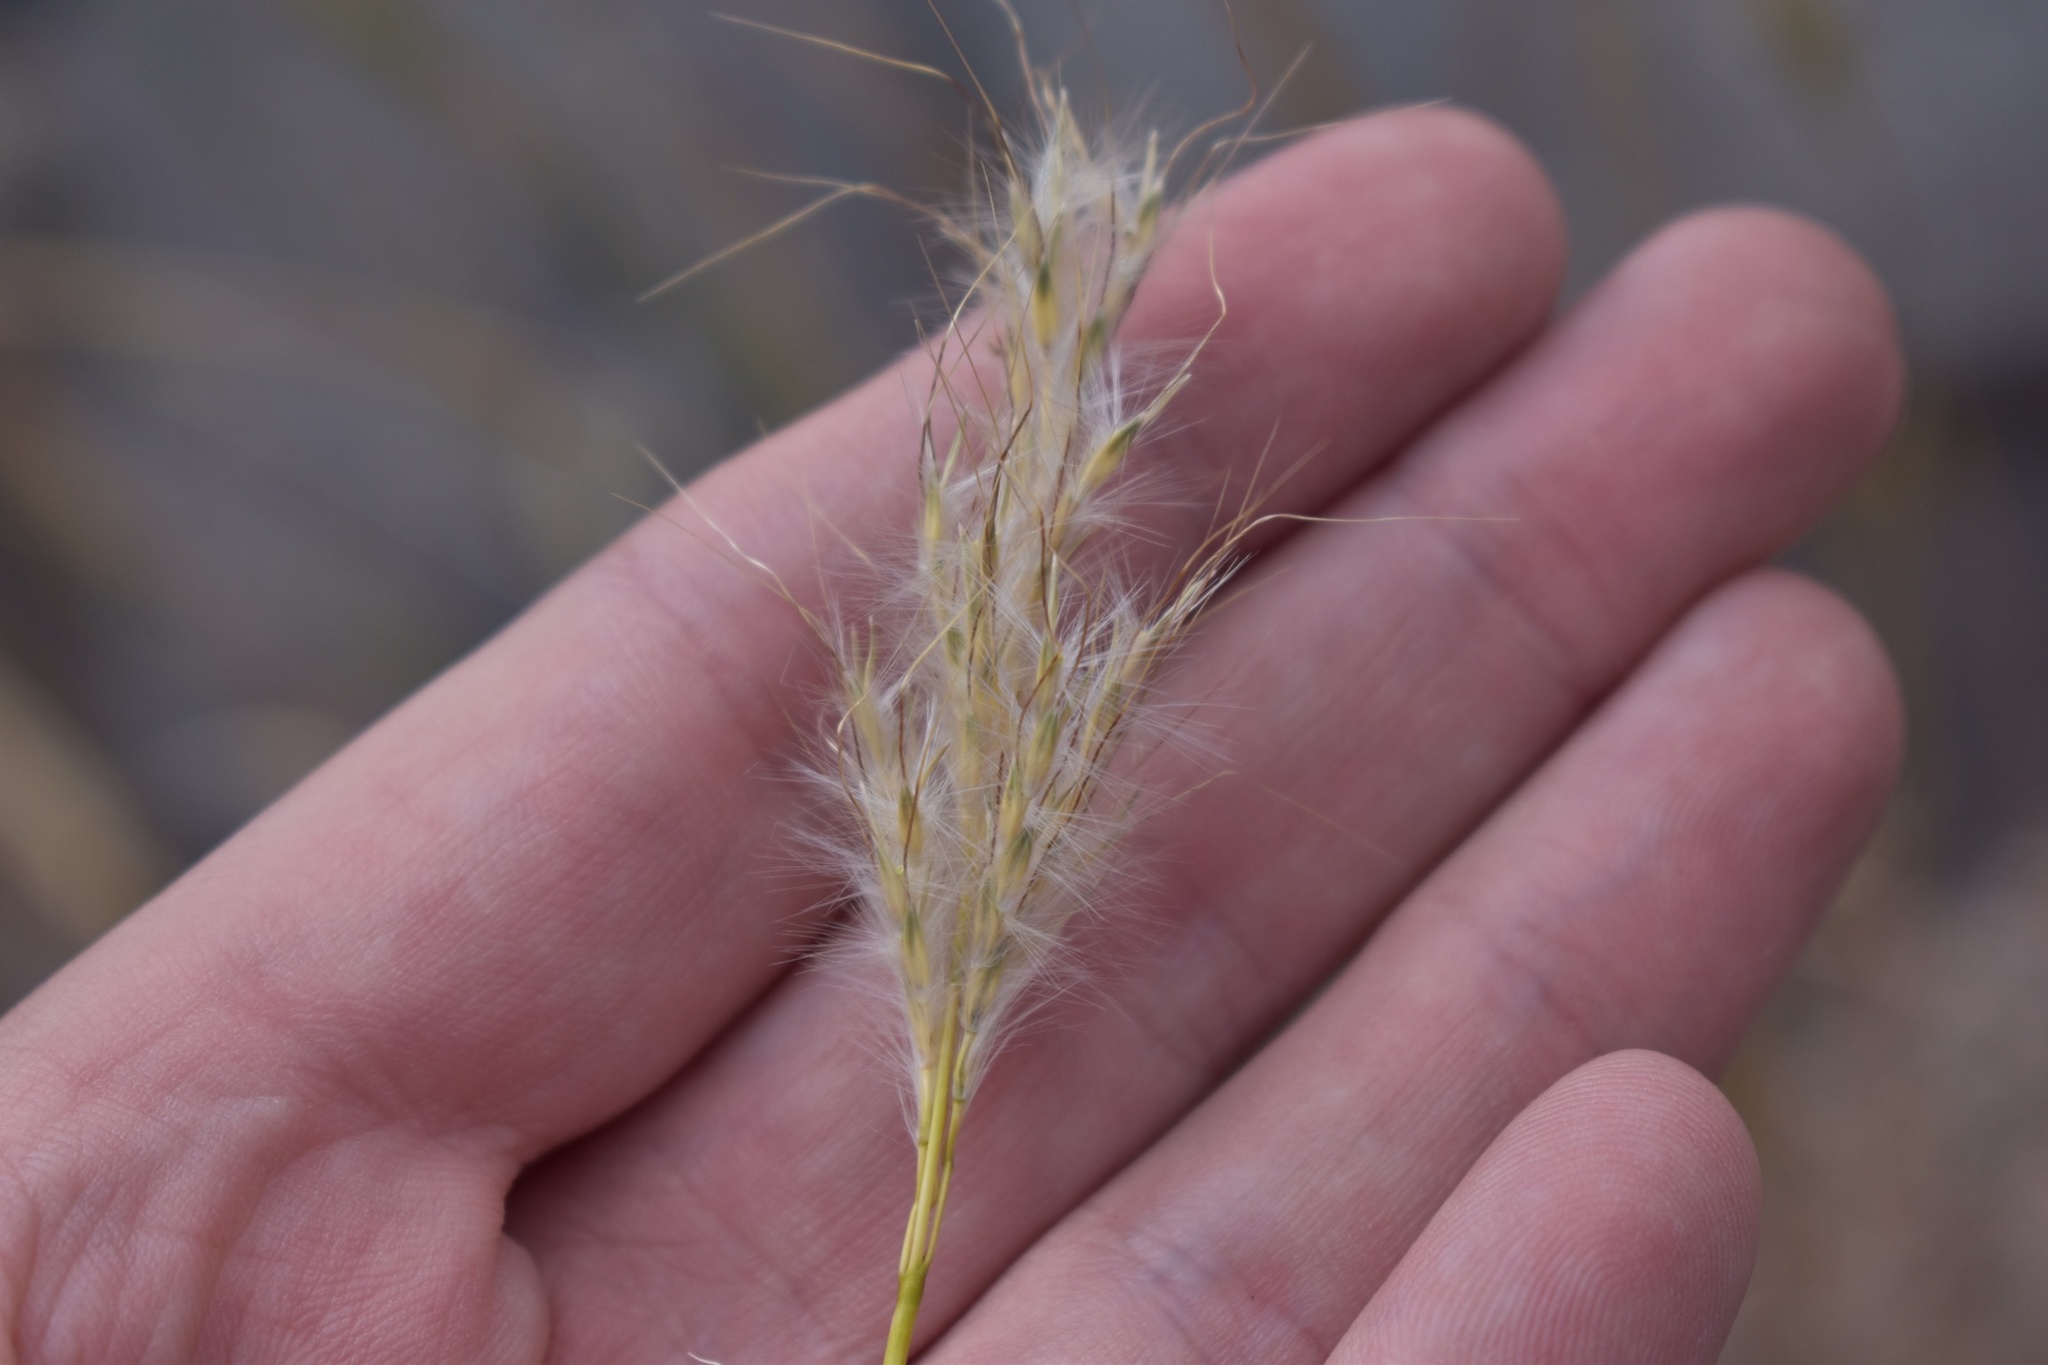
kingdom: Plantae
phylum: Tracheophyta
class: Liliopsida
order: Poales
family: Poaceae
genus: Bothriochloa
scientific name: Bothriochloa barbinodis
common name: Cane bluestem
